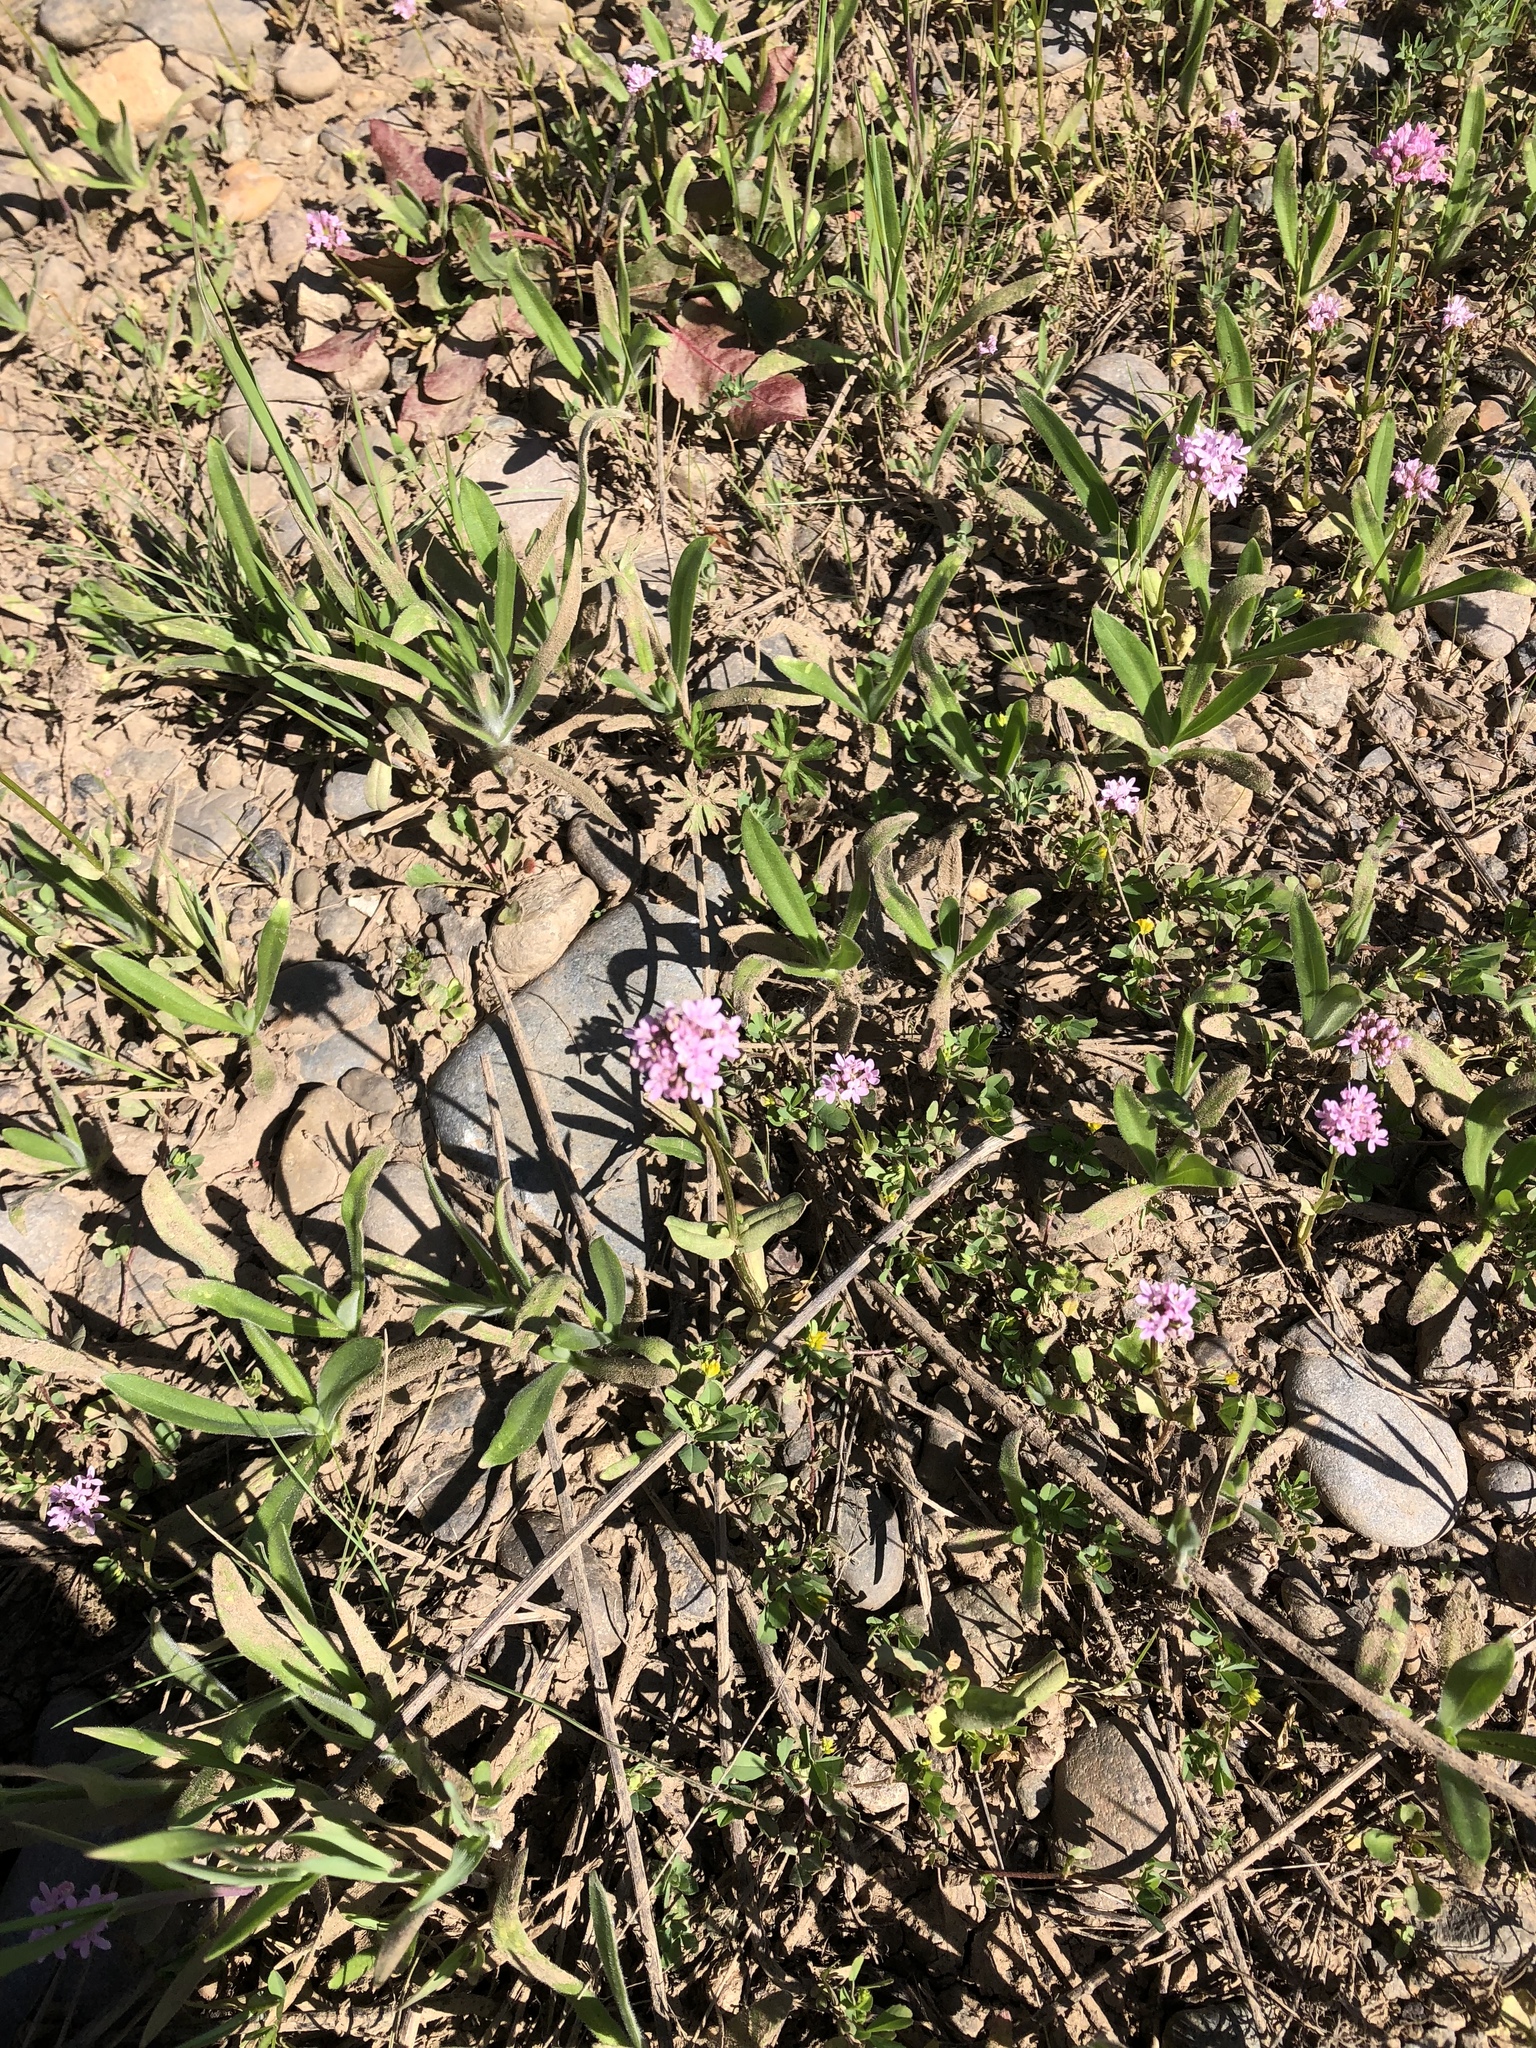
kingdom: Plantae
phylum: Tracheophyta
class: Magnoliopsida
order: Dipsacales
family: Caprifoliaceae
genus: Plectritis
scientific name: Plectritis congesta
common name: Pink plectritis
